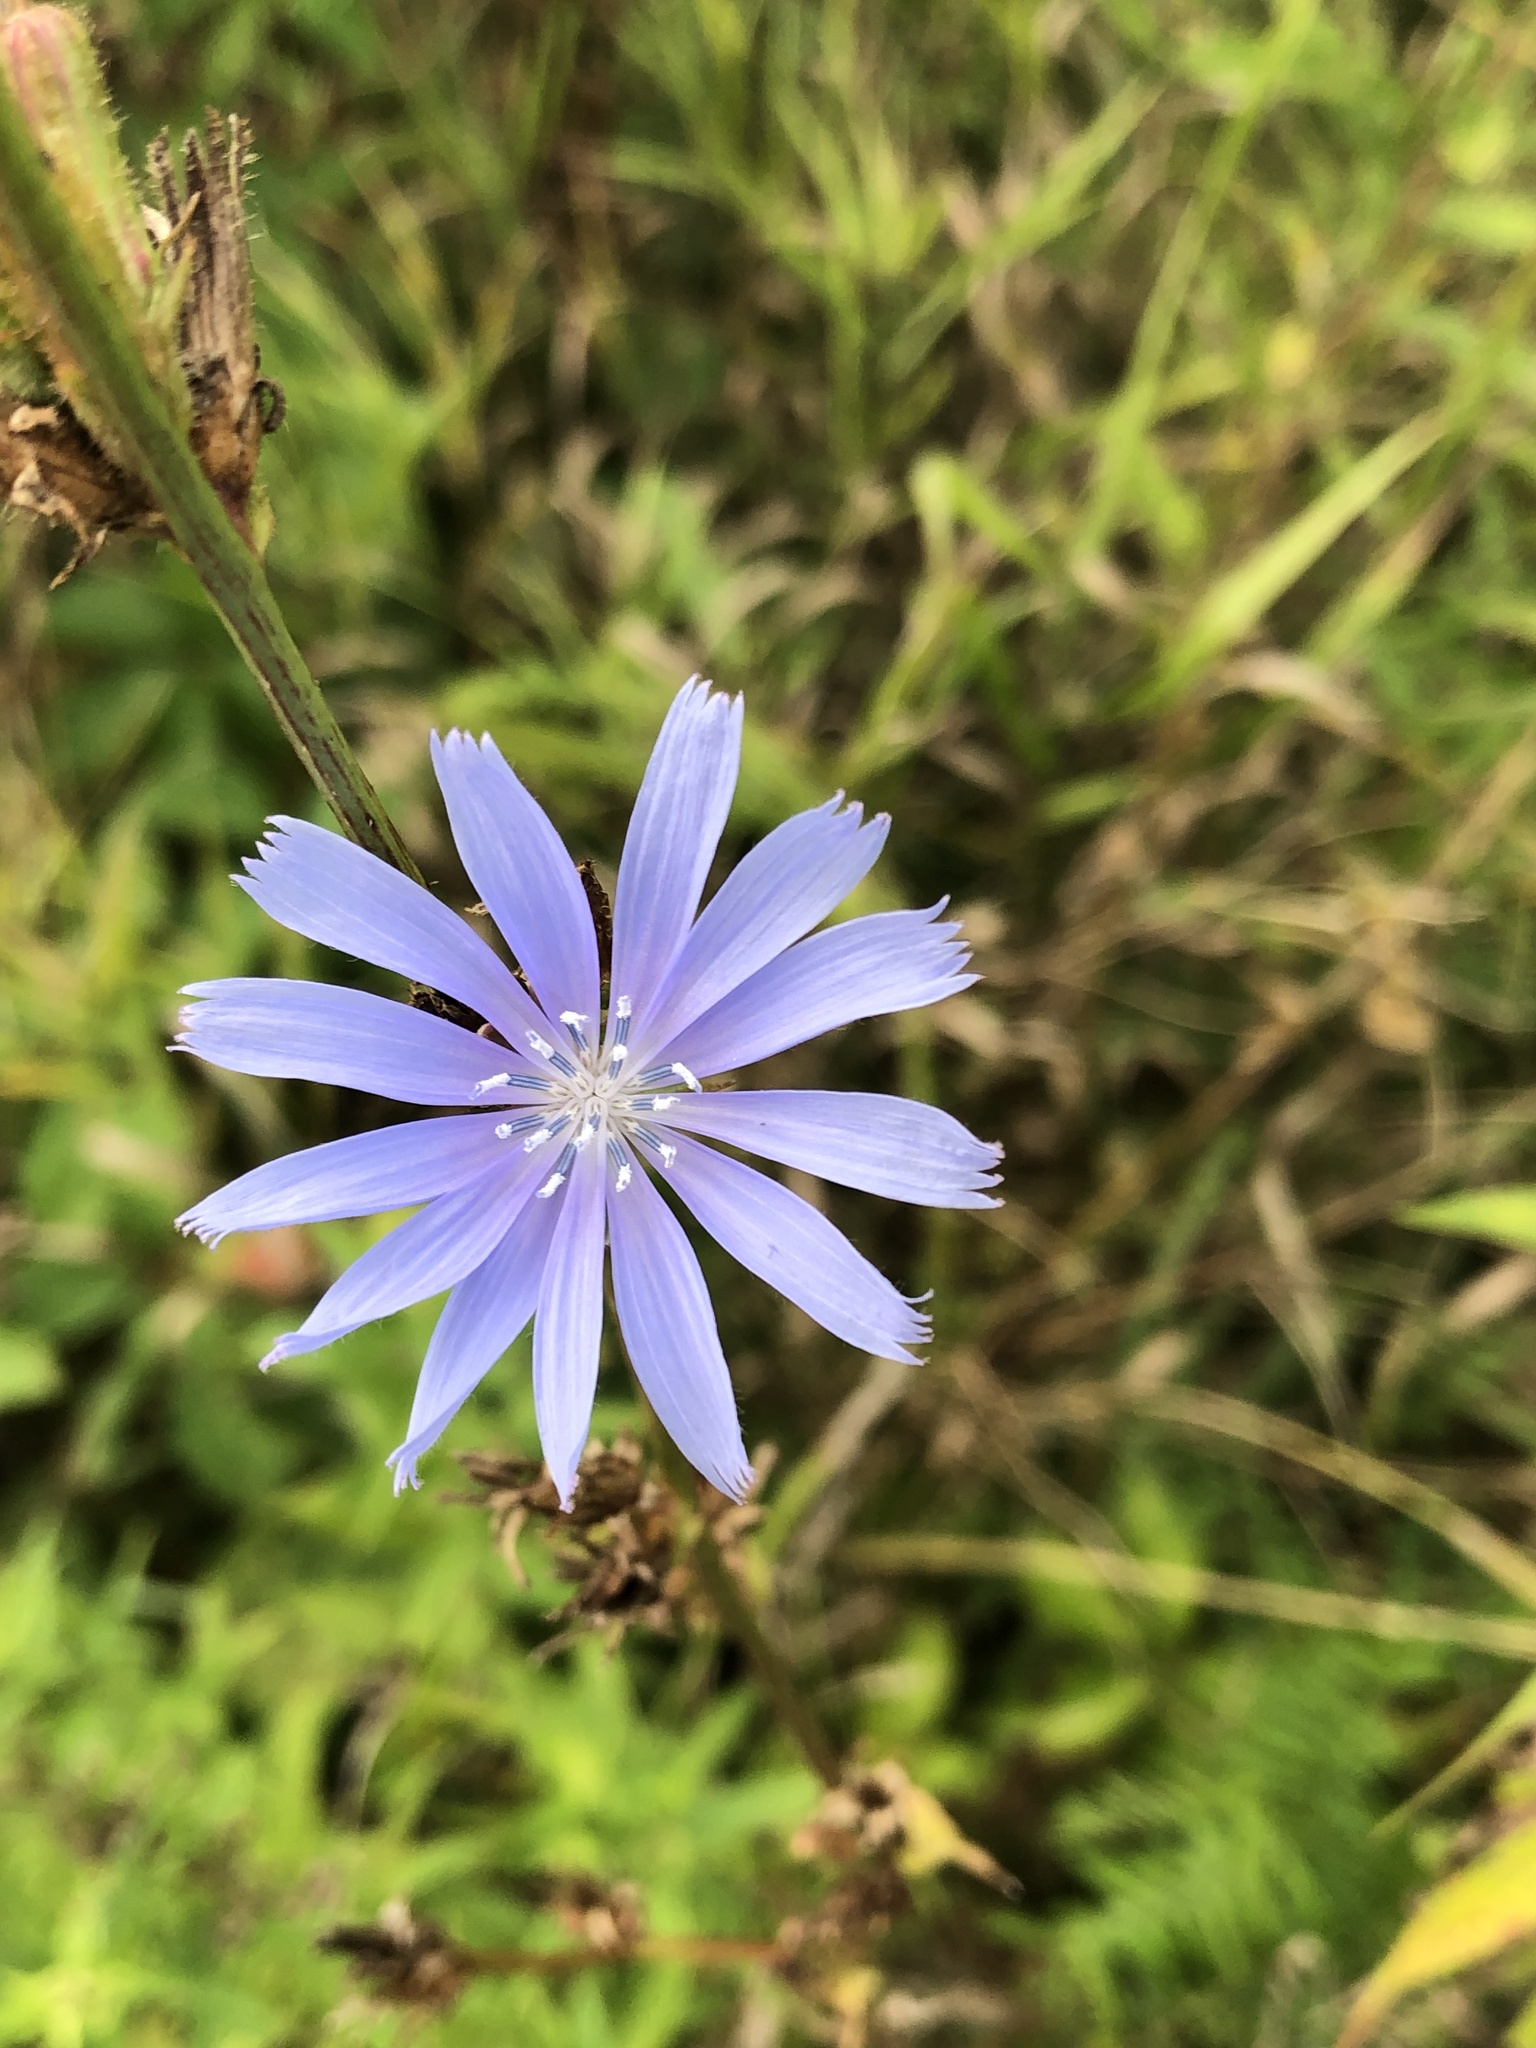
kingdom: Plantae
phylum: Tracheophyta
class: Magnoliopsida
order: Asterales
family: Asteraceae
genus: Cichorium
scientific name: Cichorium intybus
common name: Chicory
